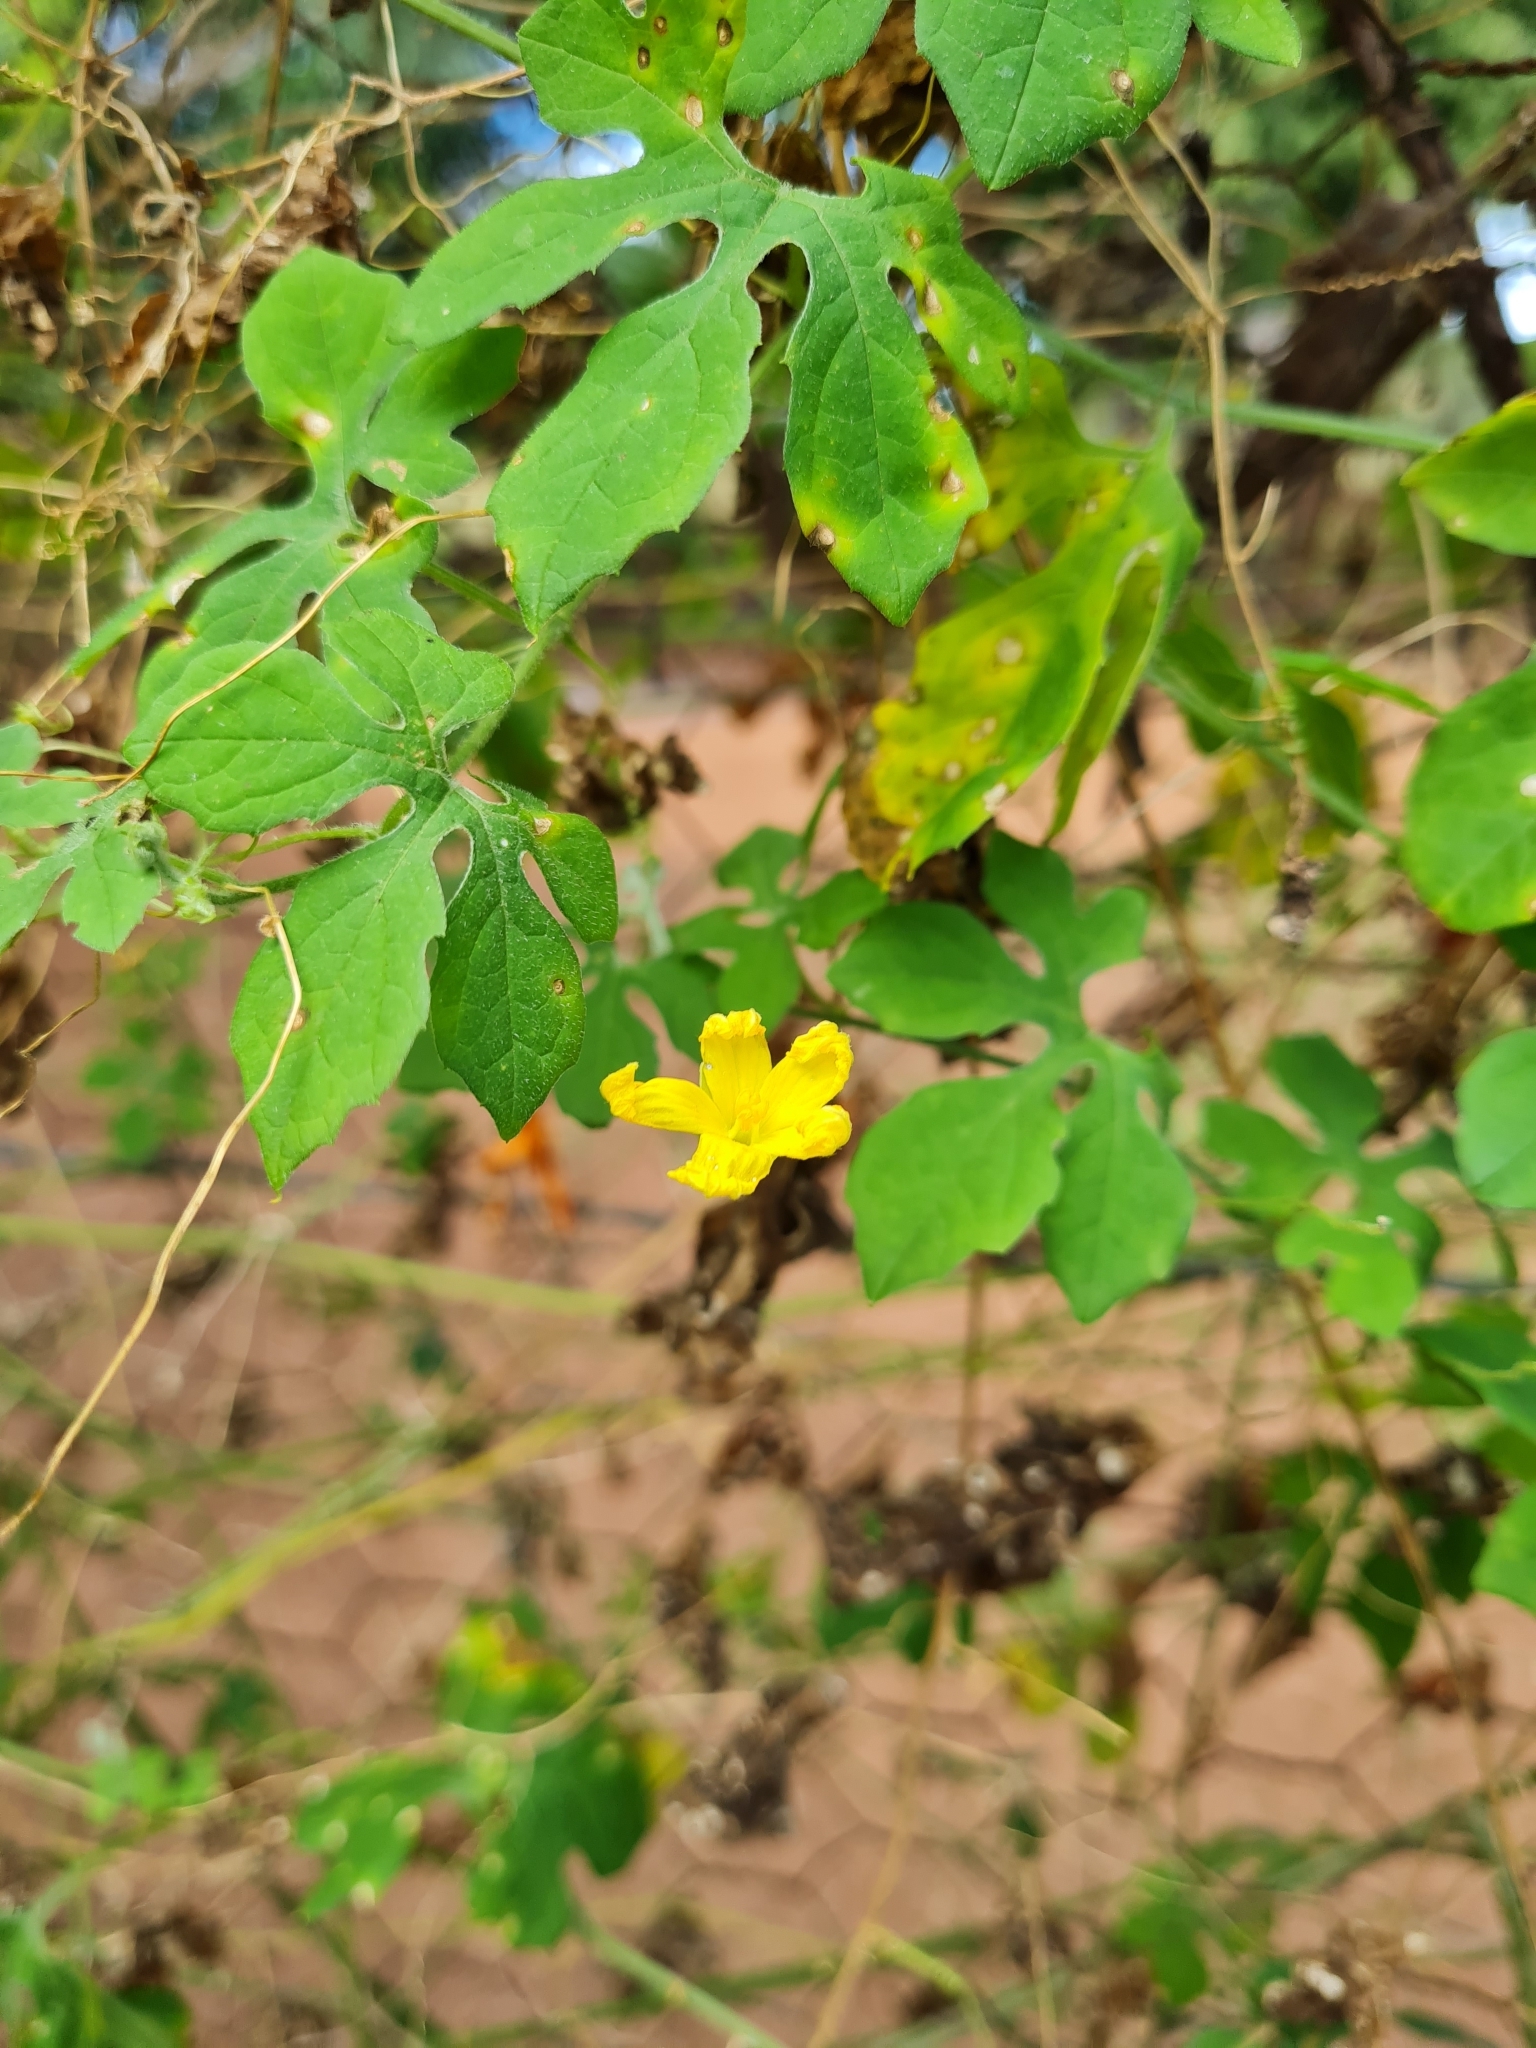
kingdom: Plantae
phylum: Tracheophyta
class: Magnoliopsida
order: Cucurbitales
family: Cucurbitaceae
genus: Momordica
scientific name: Momordica charantia
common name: Balsampear
